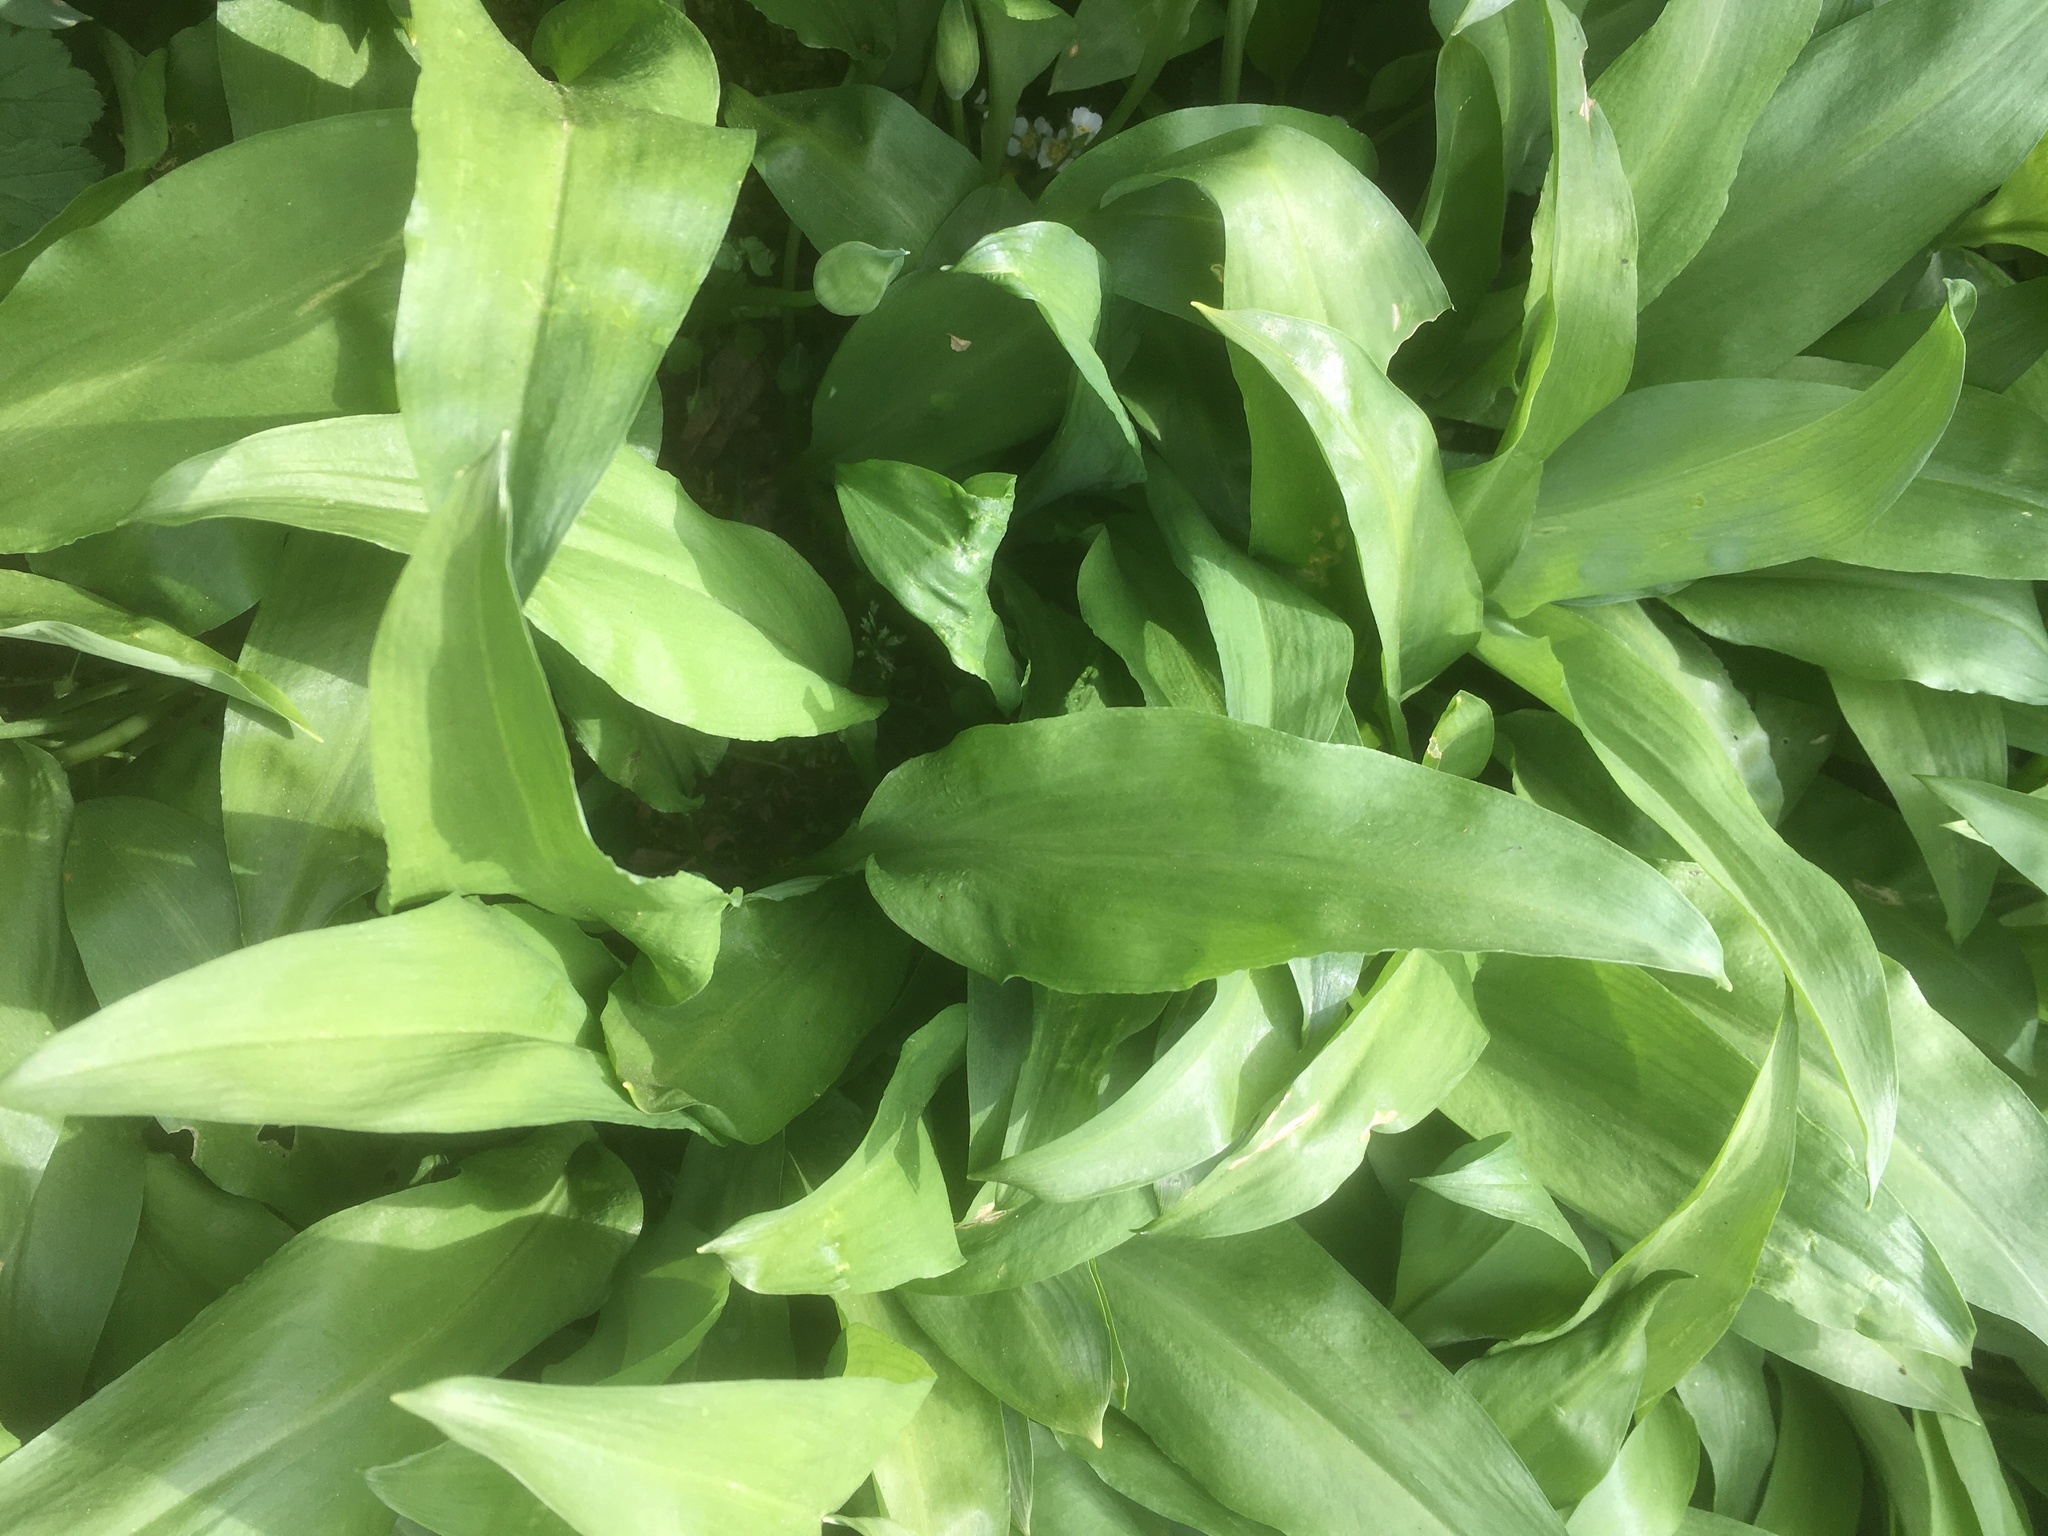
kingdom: Plantae
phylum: Tracheophyta
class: Liliopsida
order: Asparagales
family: Amaryllidaceae
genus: Allium
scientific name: Allium ursinum
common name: Ramsons
